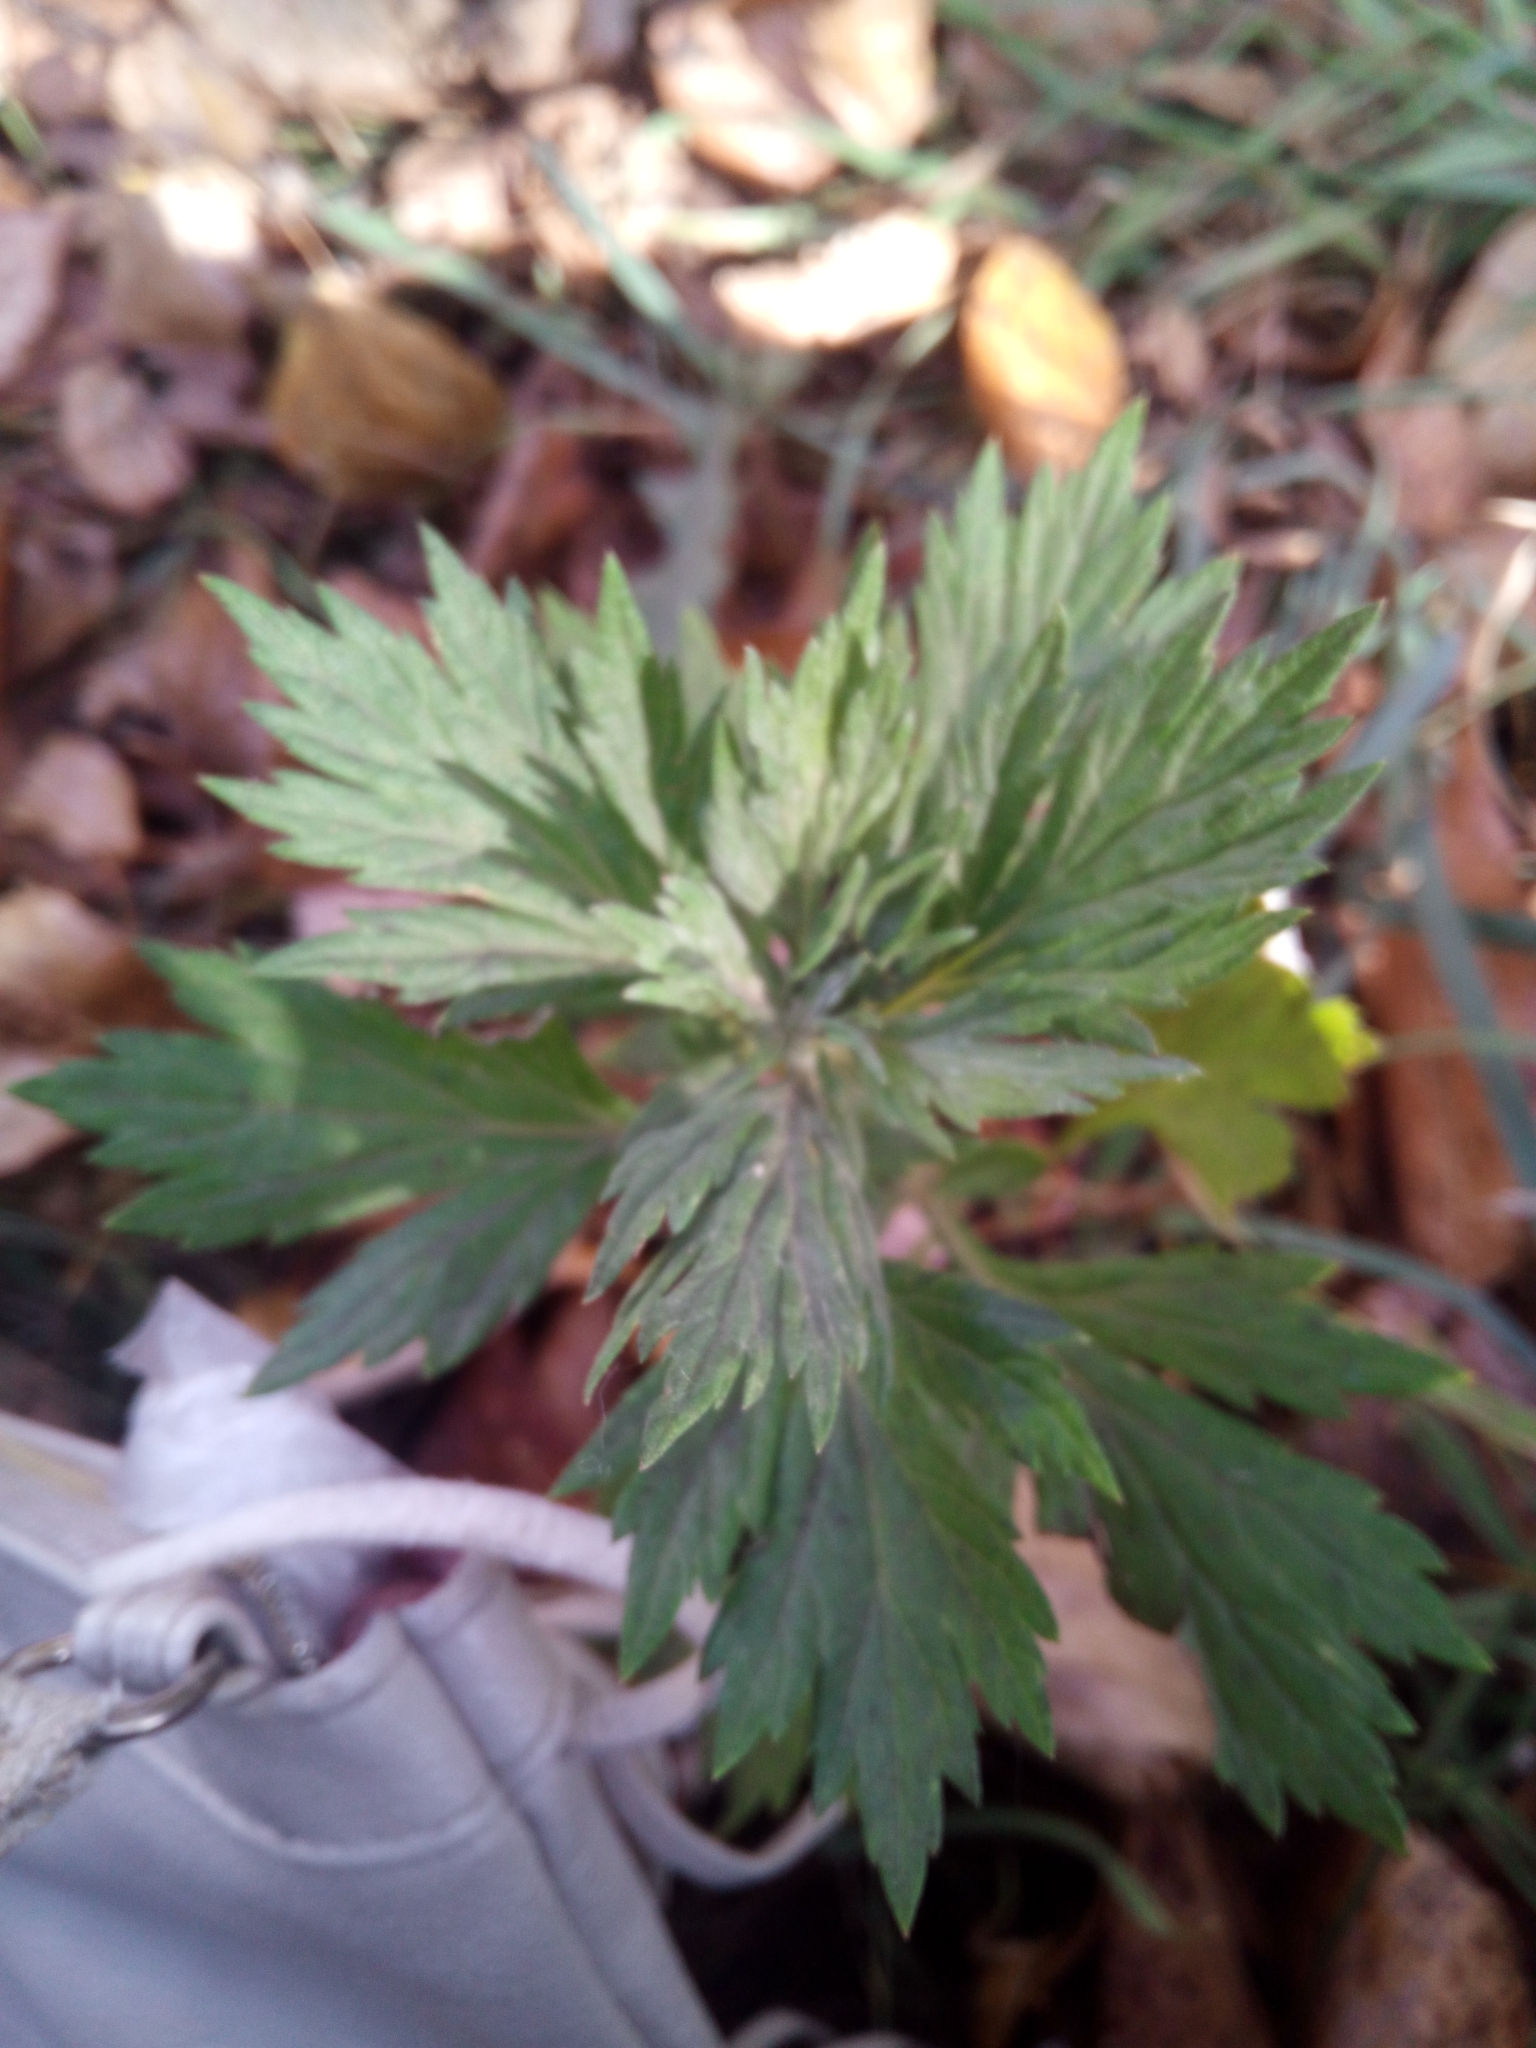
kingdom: Plantae
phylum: Tracheophyta
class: Magnoliopsida
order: Asterales
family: Asteraceae
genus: Artemisia
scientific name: Artemisia vulgaris
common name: Mugwort
